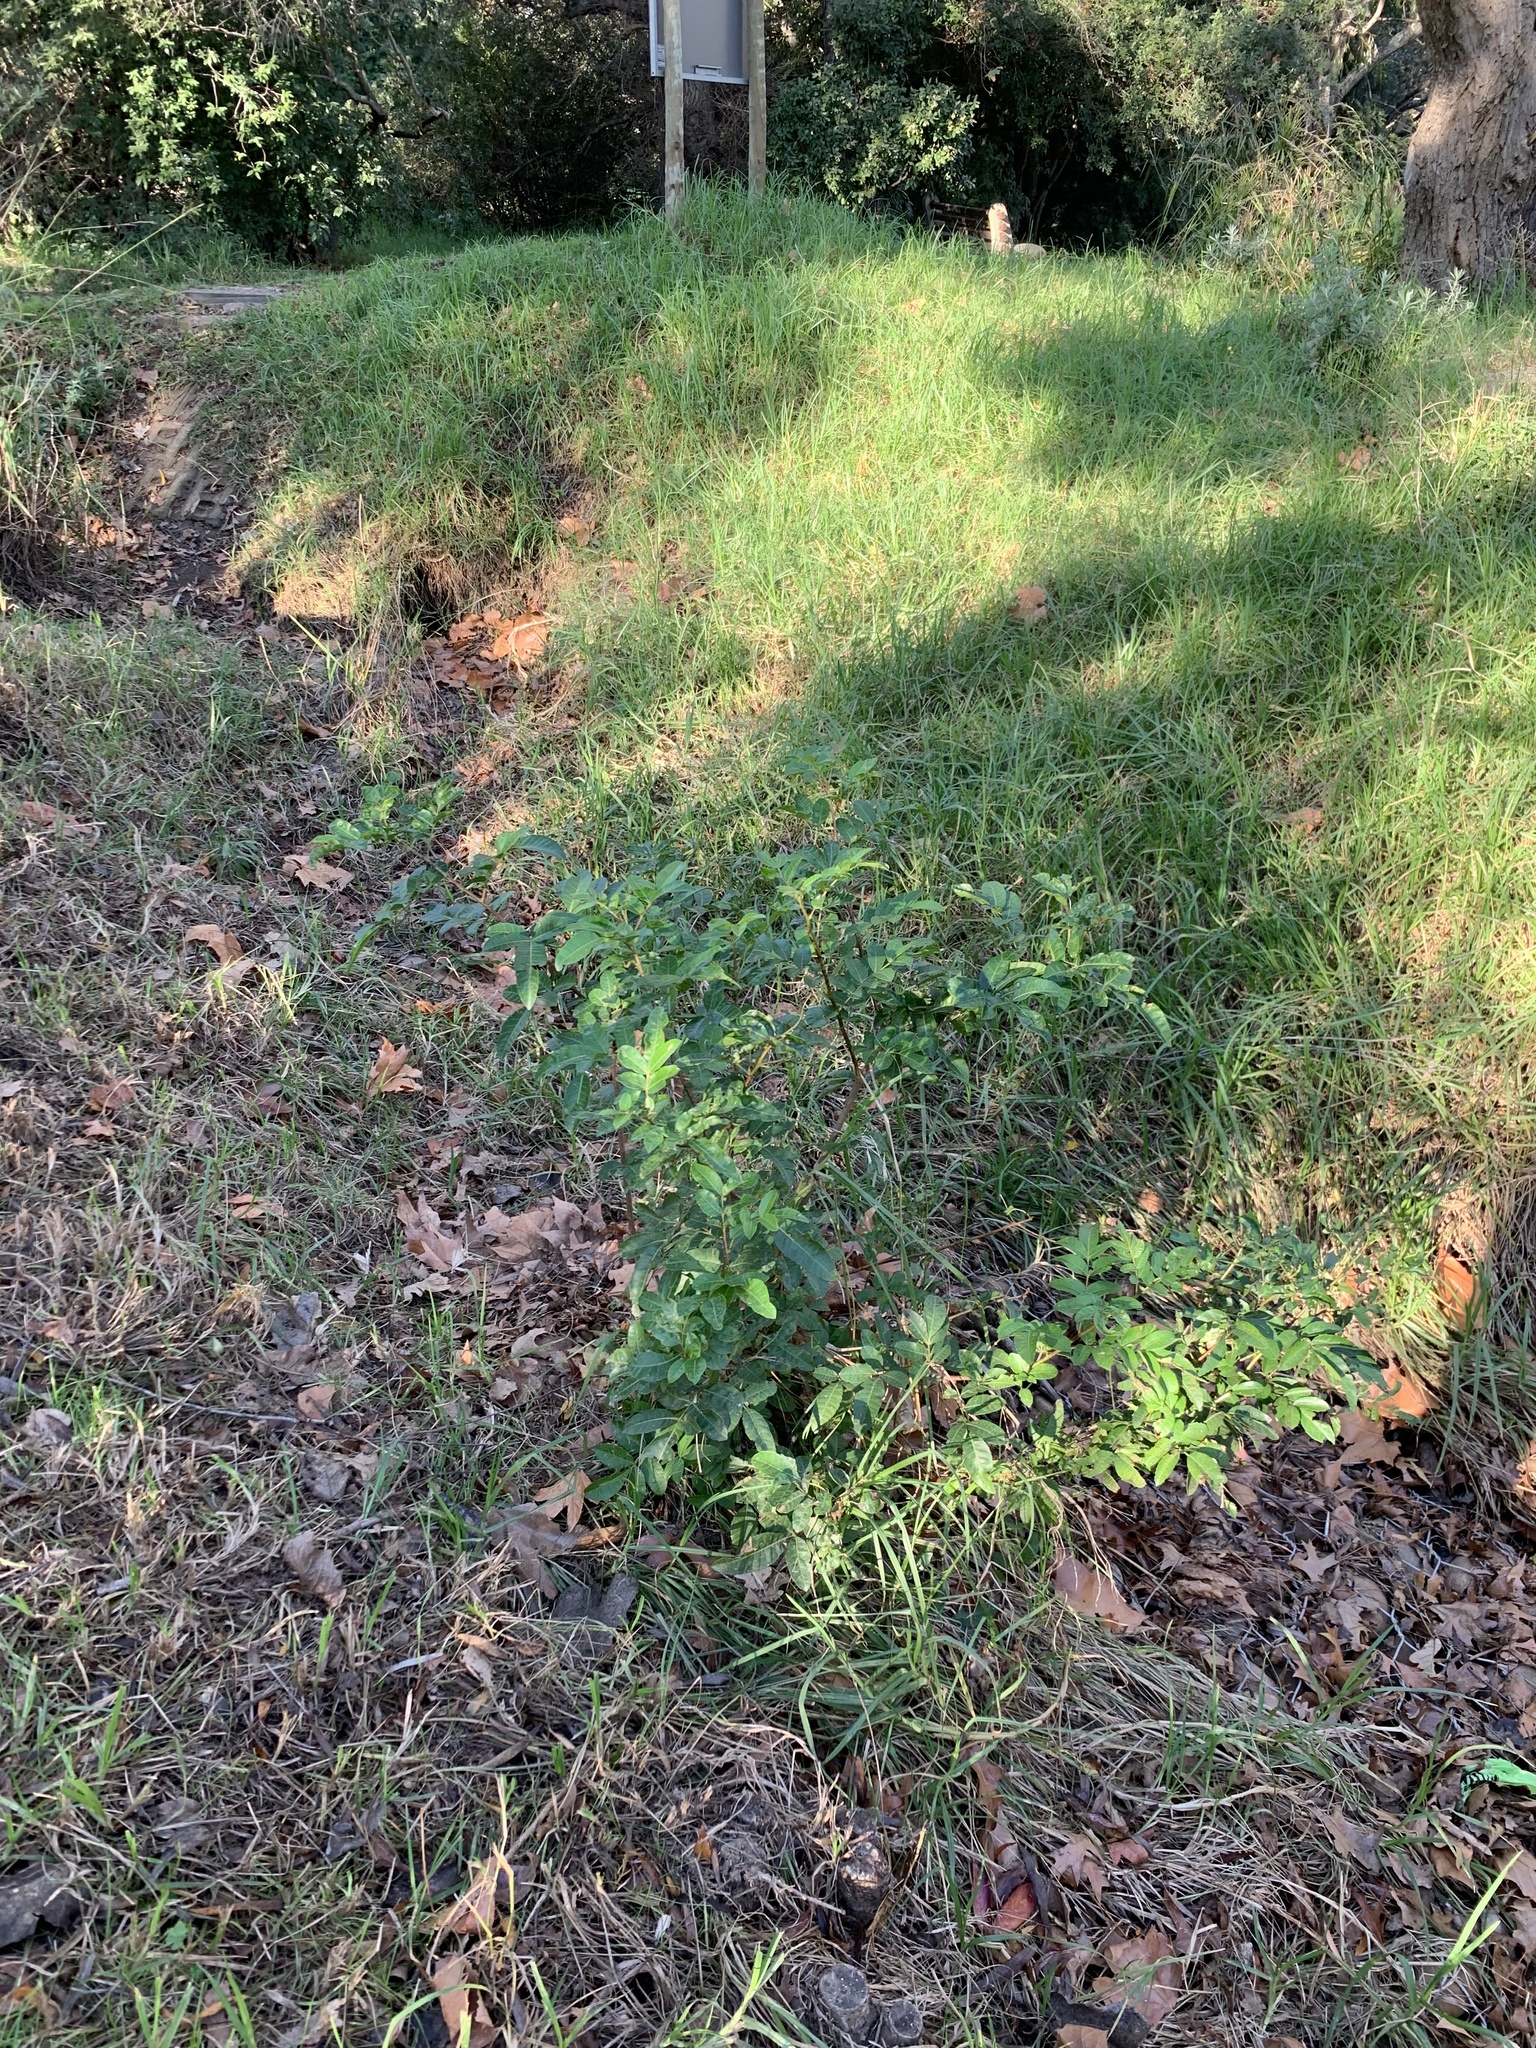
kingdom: Plantae
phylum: Tracheophyta
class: Magnoliopsida
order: Sapindales
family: Anacardiaceae
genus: Schinus
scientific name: Schinus terebinthifolia
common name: Brazilian peppertree
